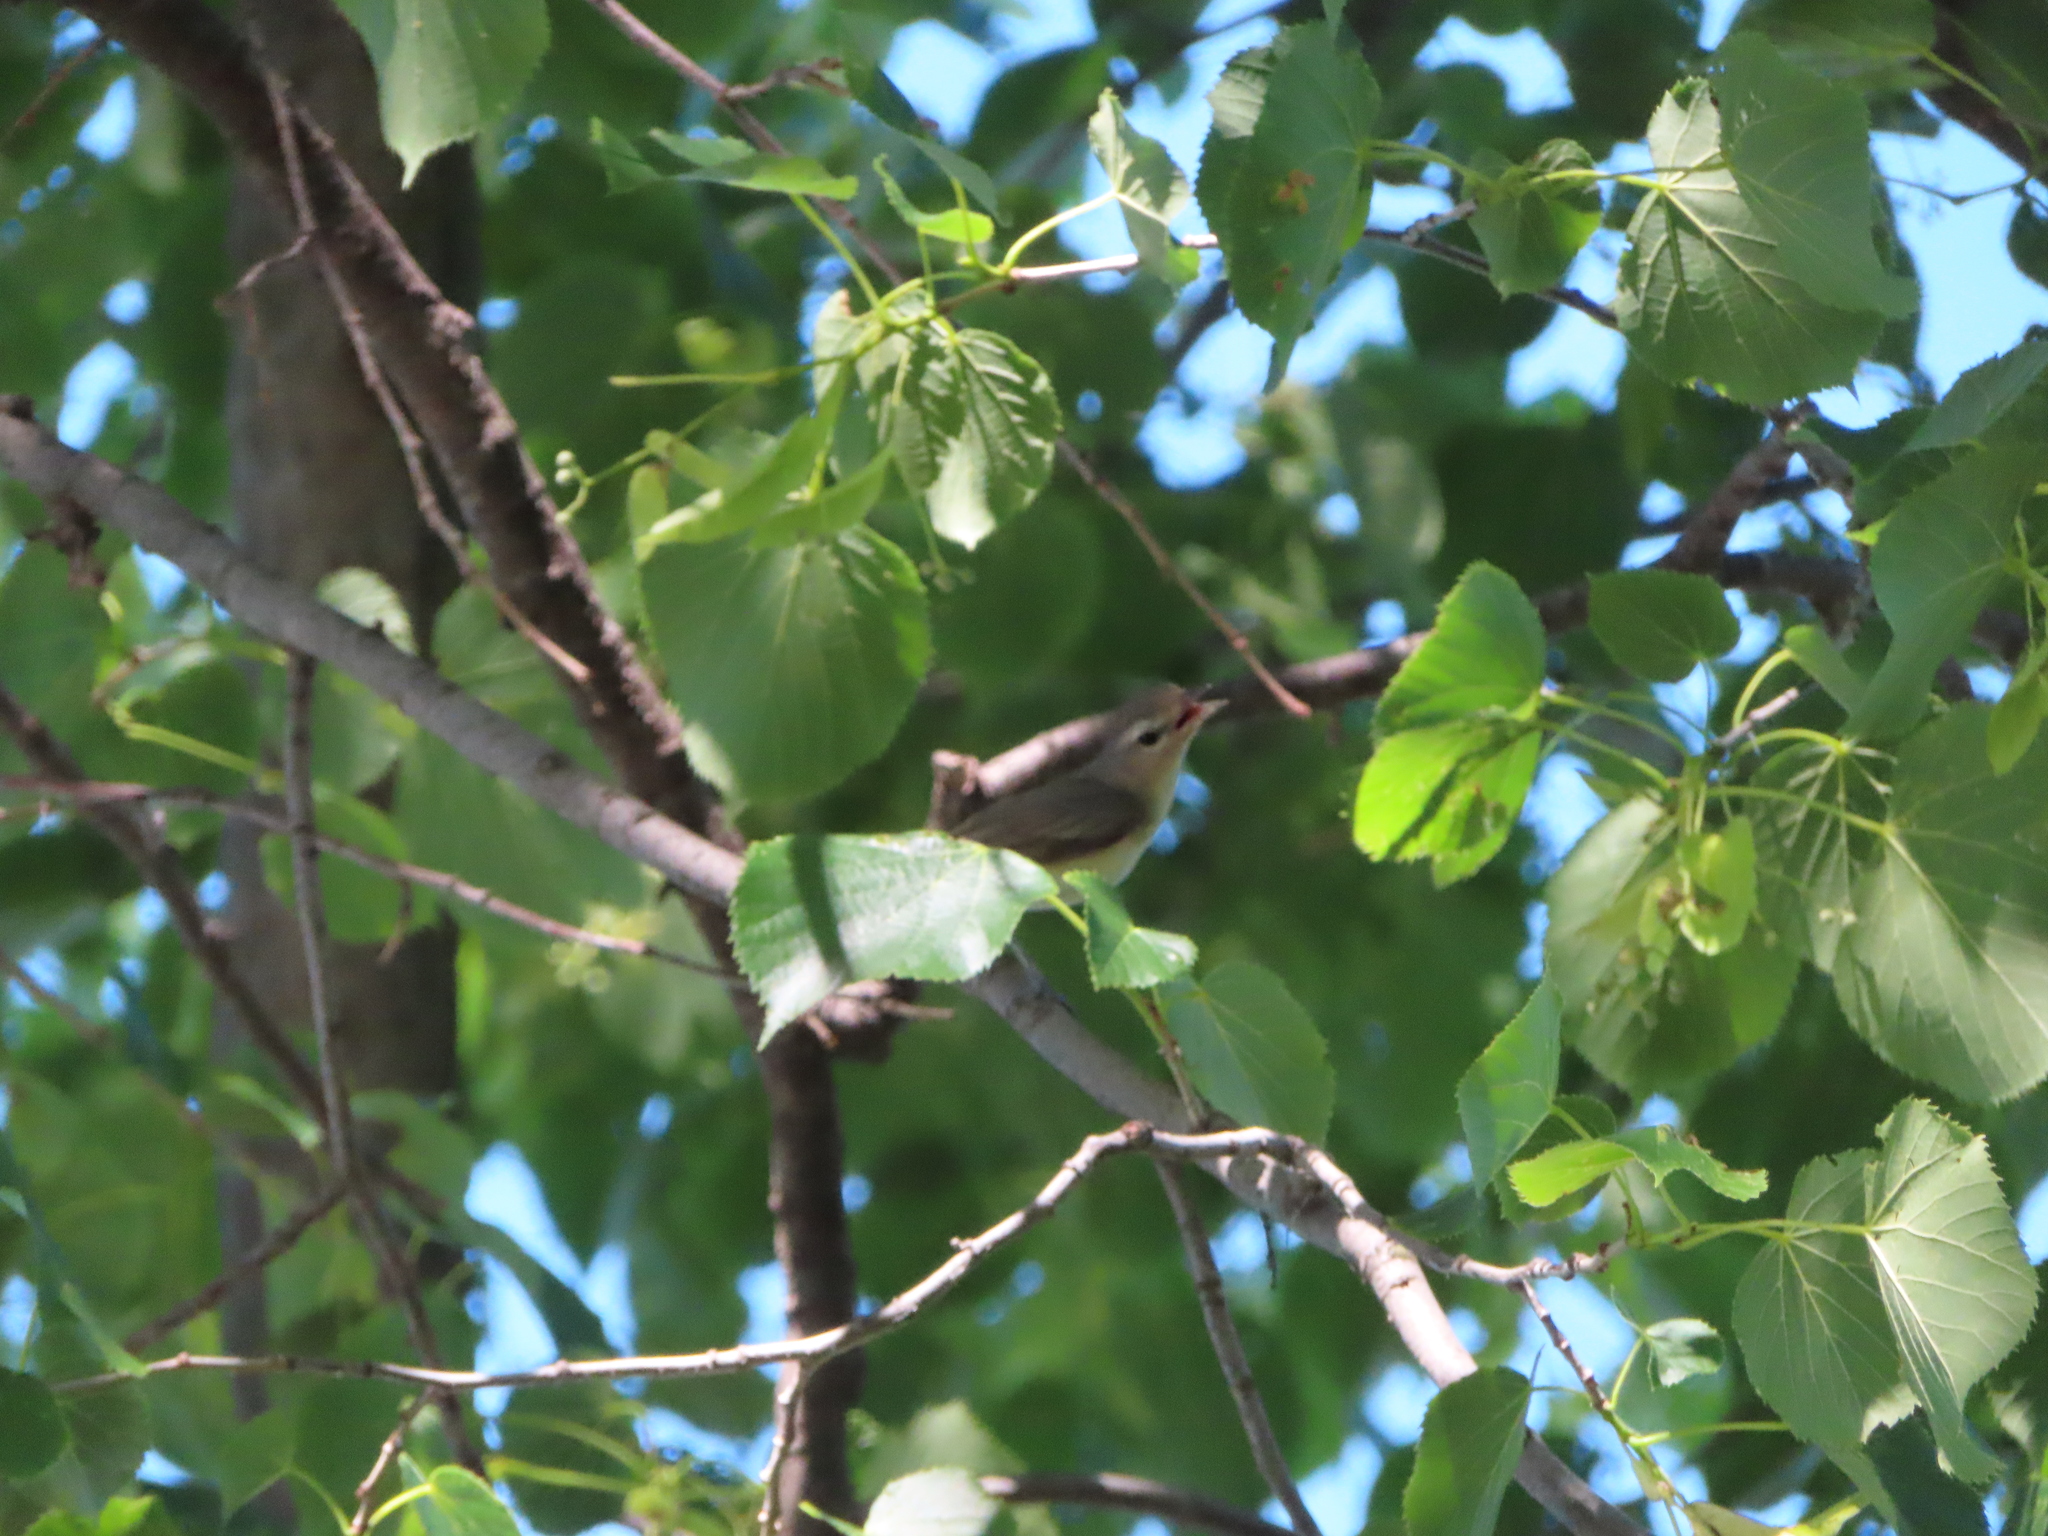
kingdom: Animalia
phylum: Chordata
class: Aves
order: Passeriformes
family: Vireonidae
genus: Vireo
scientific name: Vireo gilvus
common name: Warbling vireo
